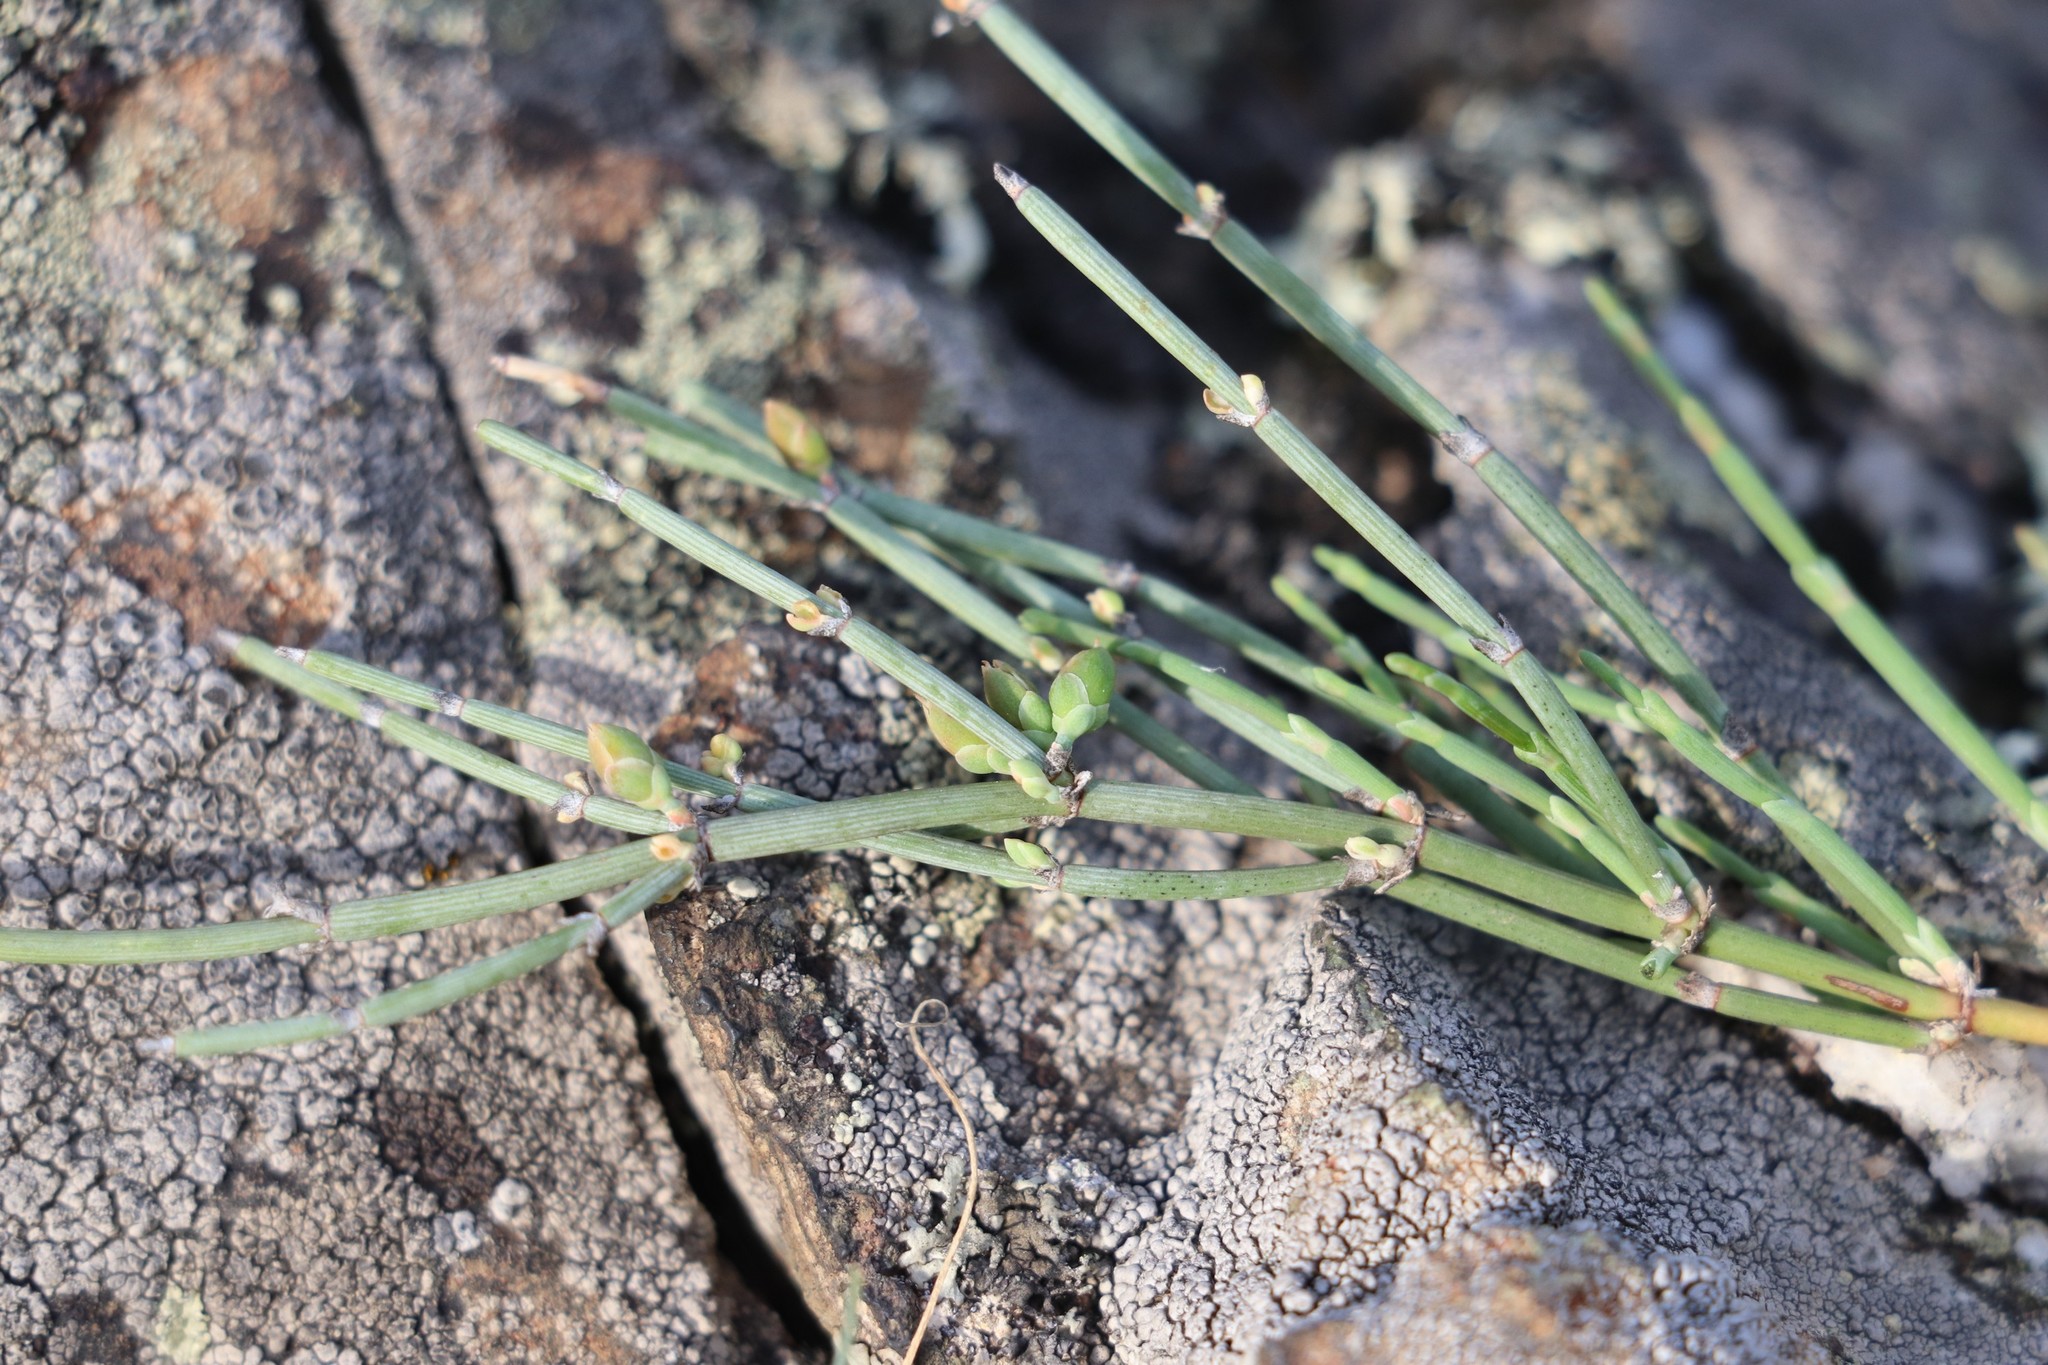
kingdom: Plantae
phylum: Tracheophyta
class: Gnetopsida
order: Ephedrales
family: Ephedraceae
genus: Ephedra
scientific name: Ephedra equisetina
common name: Mongolian ephedra
